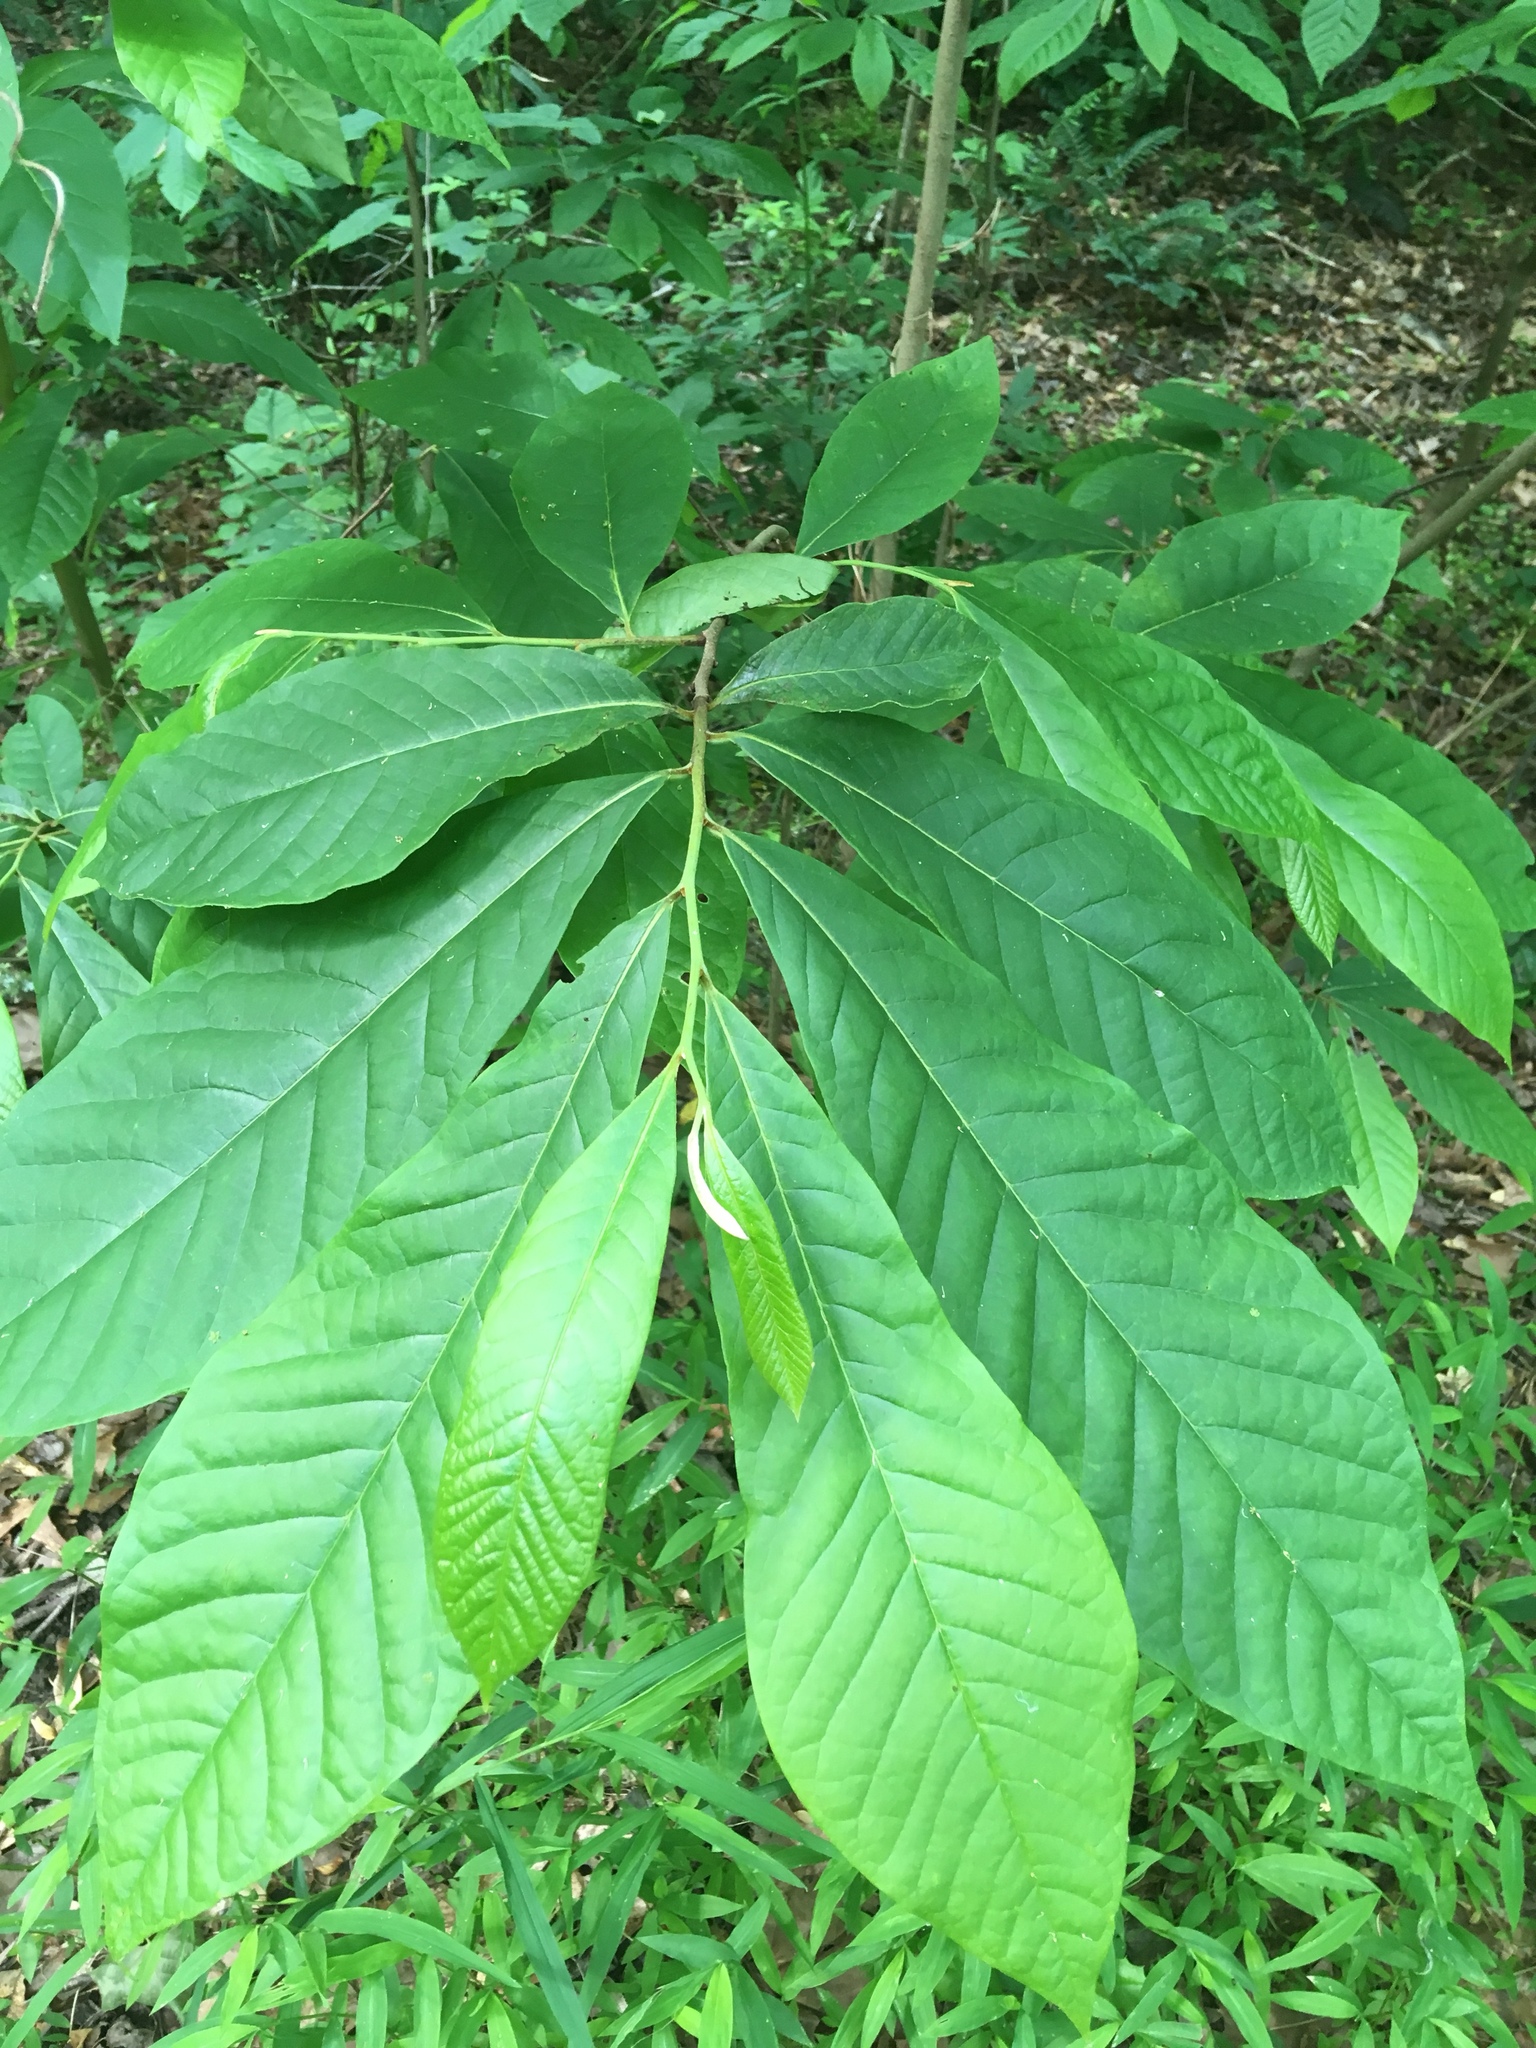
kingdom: Plantae
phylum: Tracheophyta
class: Magnoliopsida
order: Magnoliales
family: Annonaceae
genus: Asimina
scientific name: Asimina triloba
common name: Dog-banana
